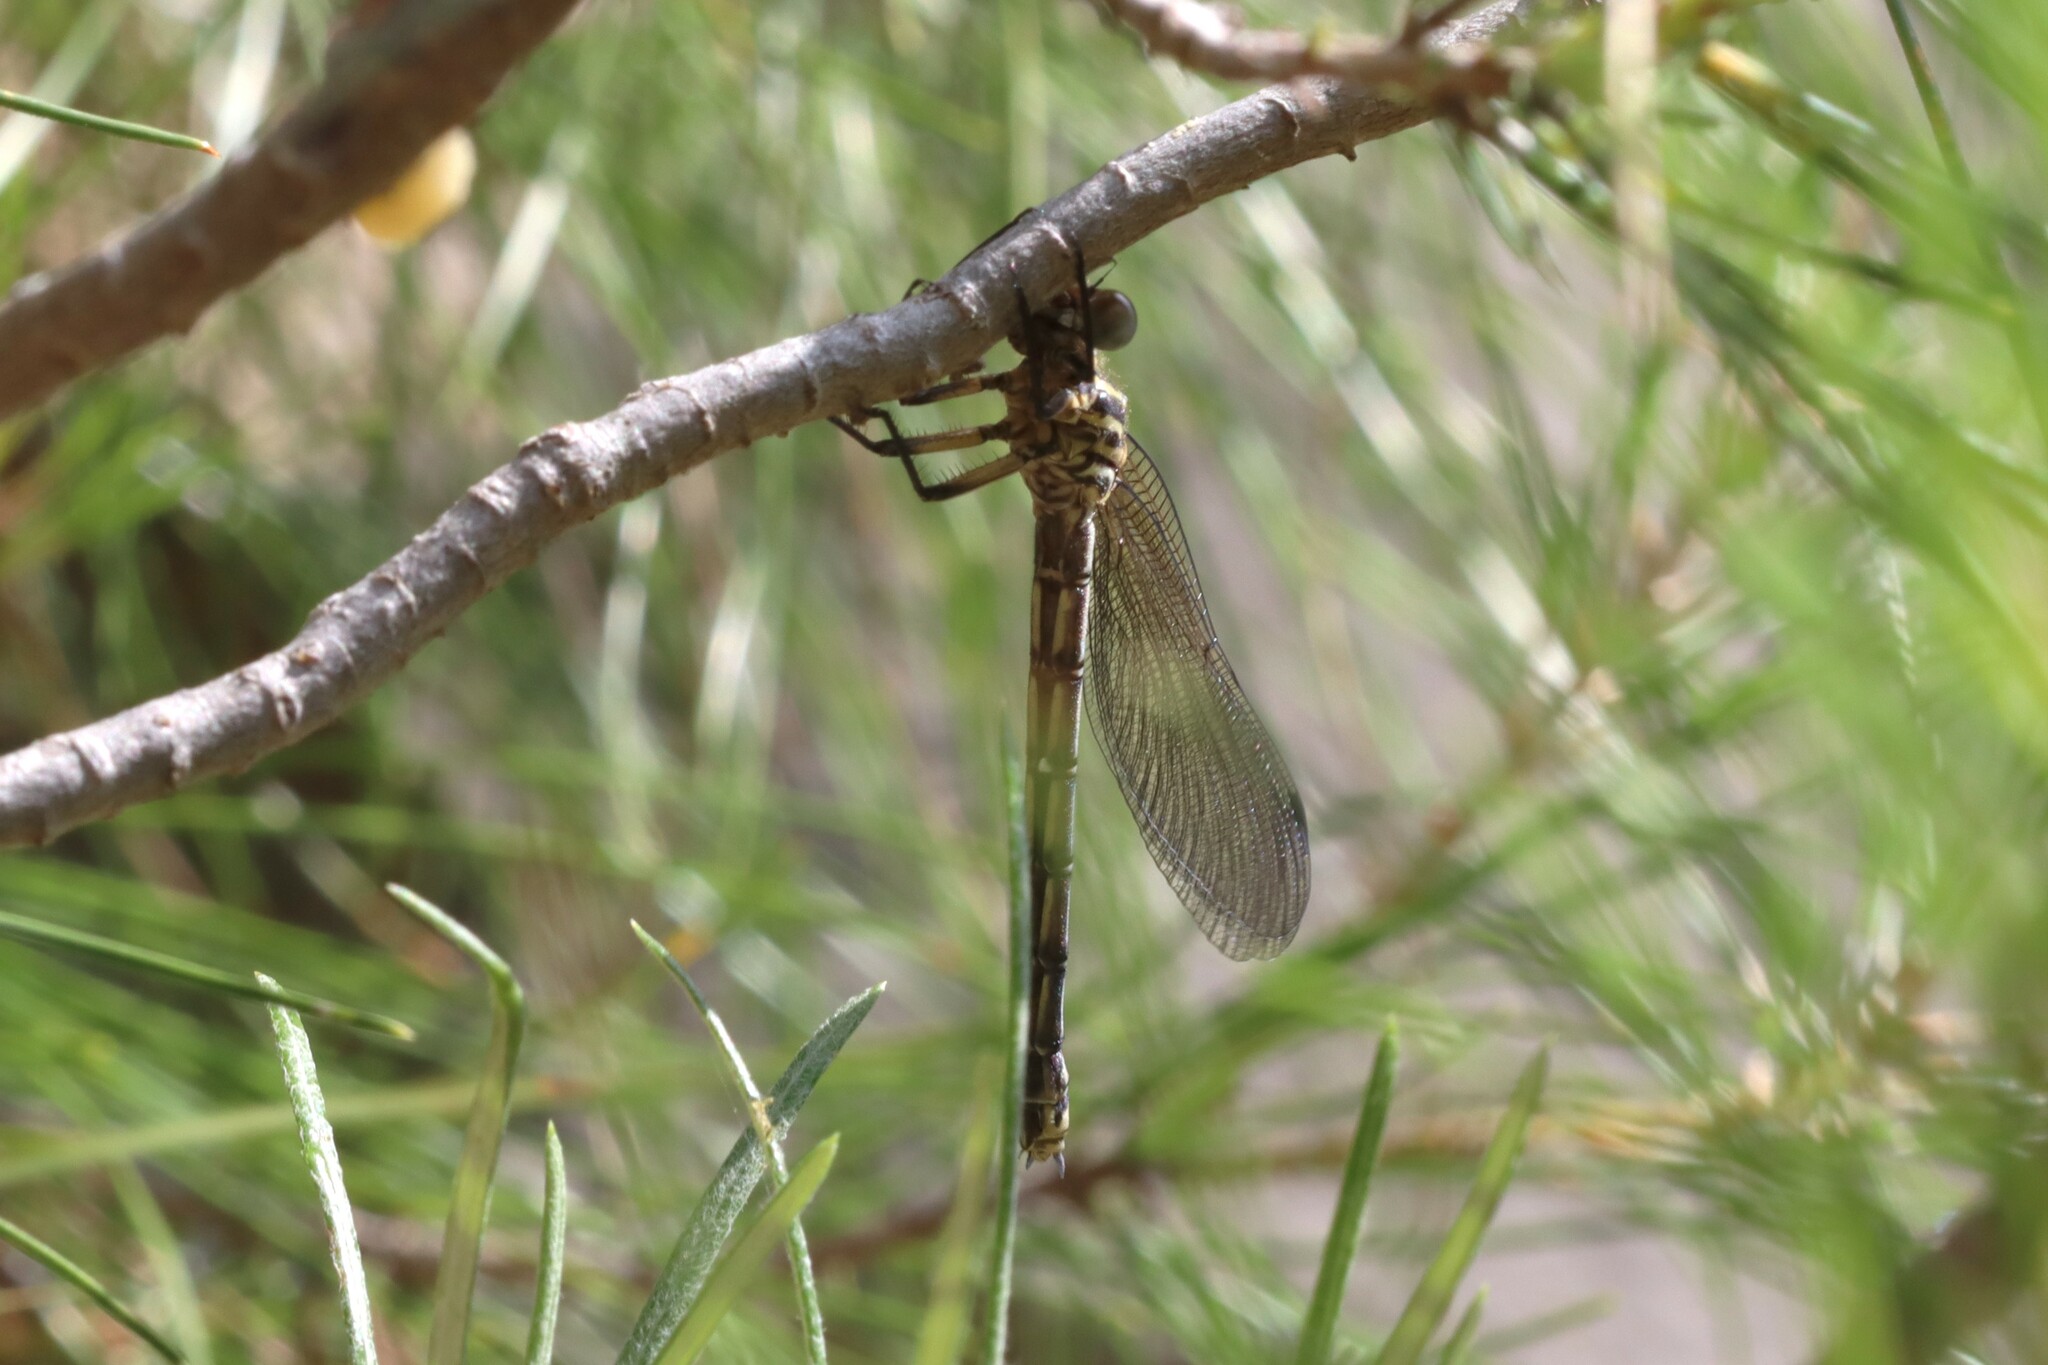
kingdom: Animalia
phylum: Arthropoda
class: Insecta
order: Odonata
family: Euphaeidae
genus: Epallage
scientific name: Epallage fatime
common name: Odalisque
